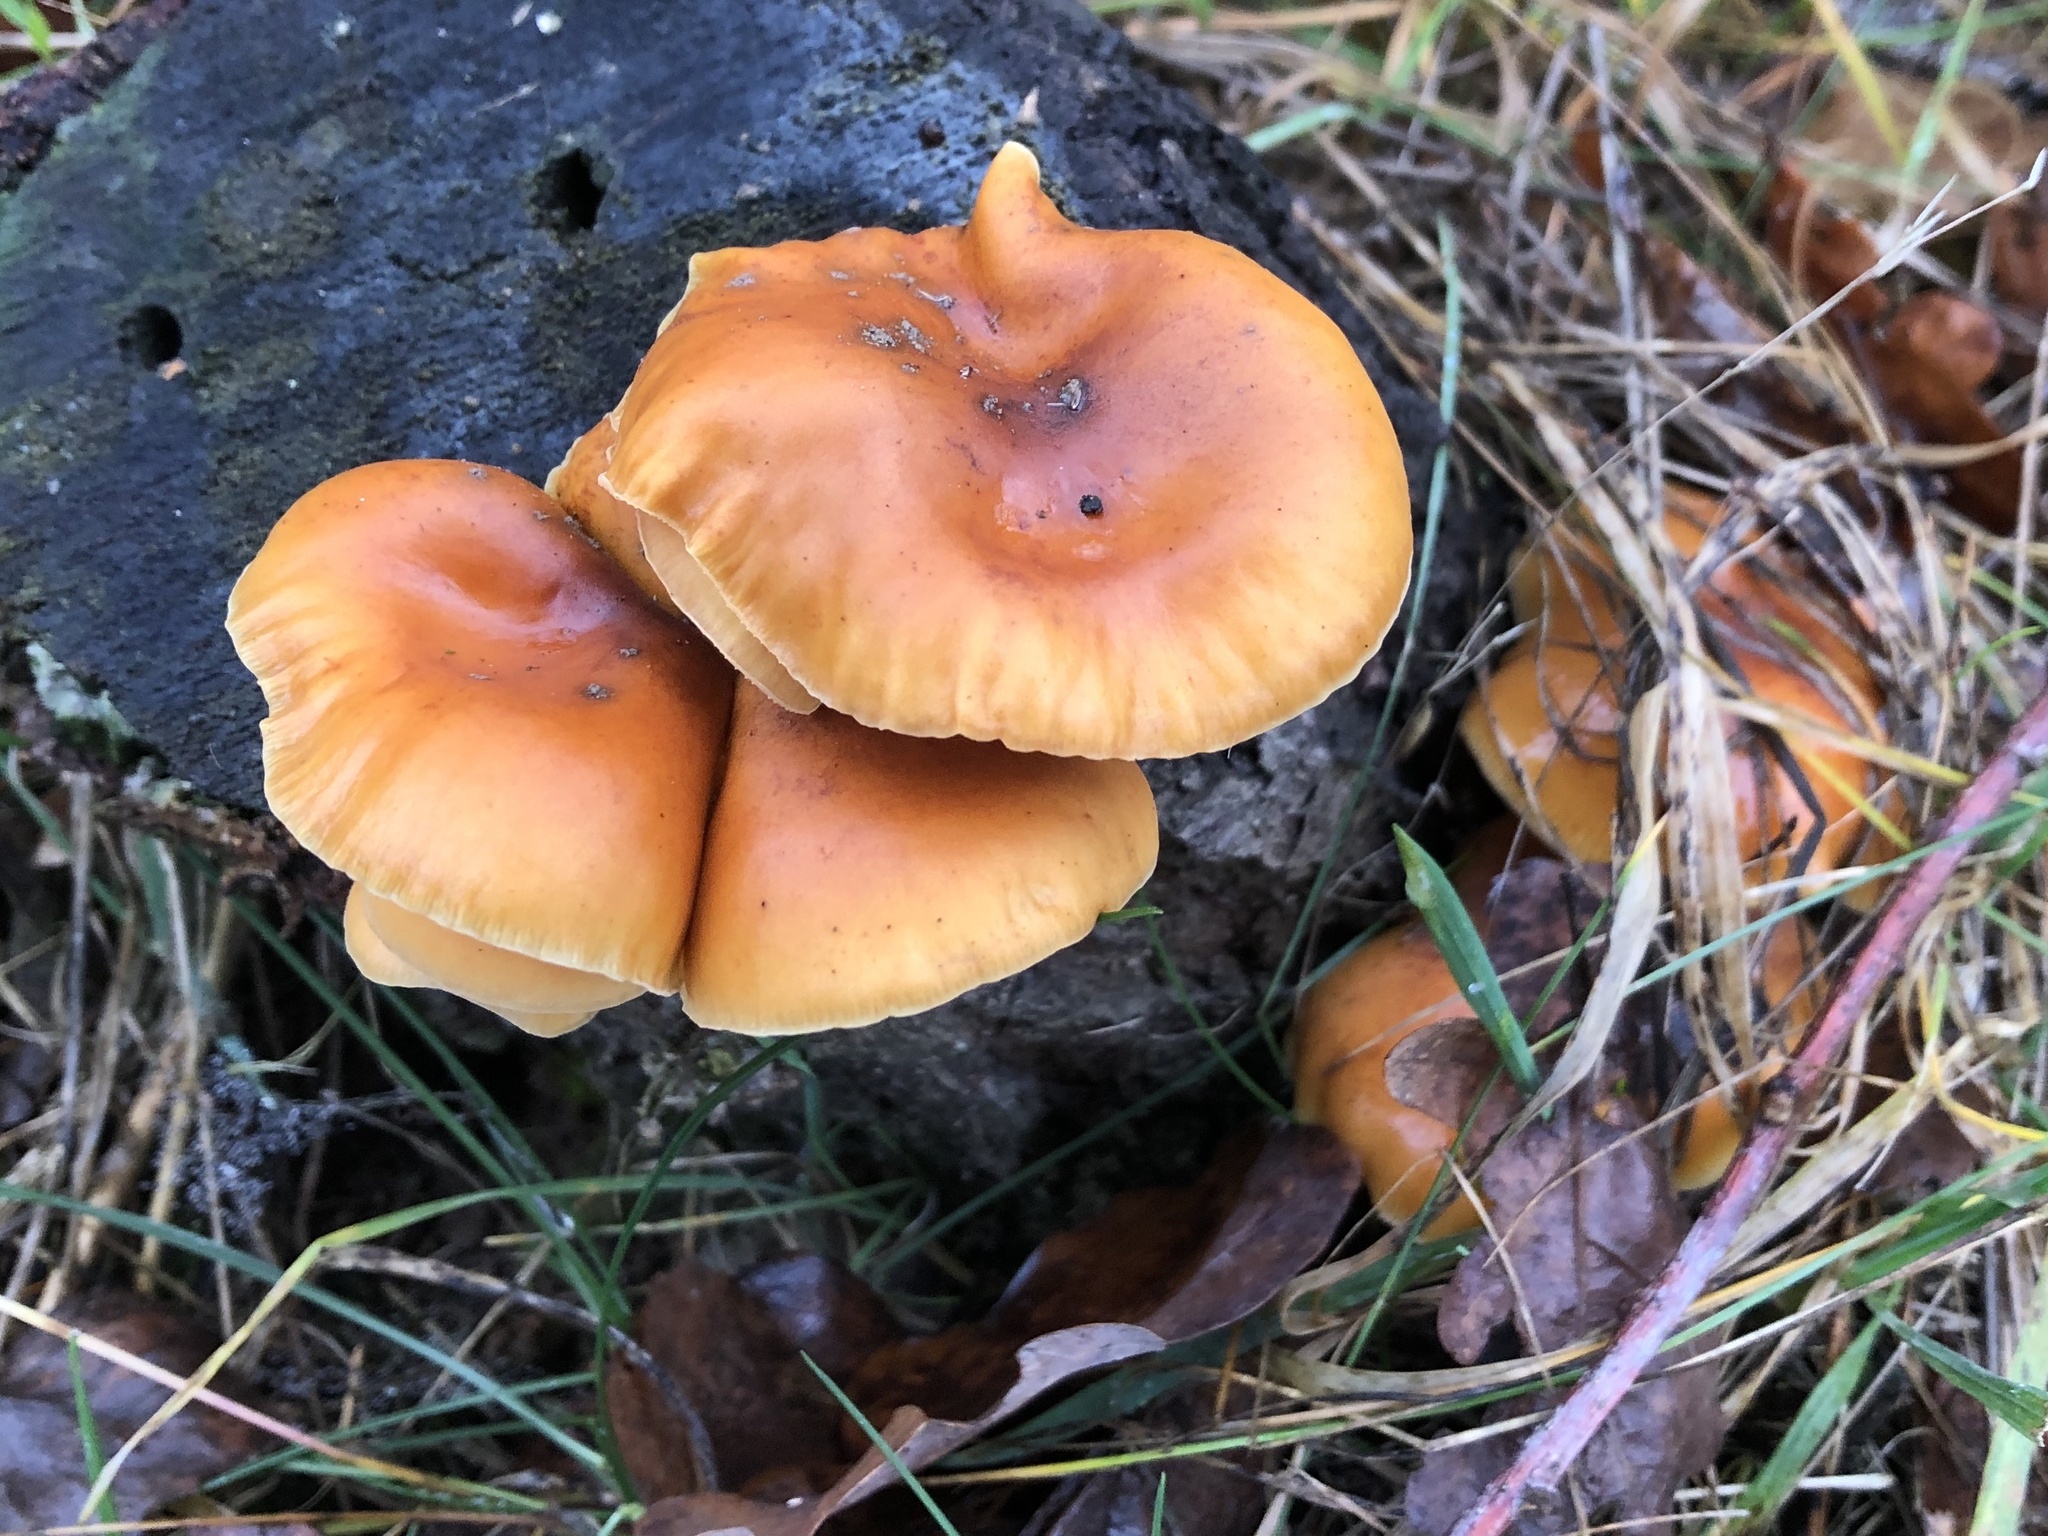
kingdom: Fungi
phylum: Basidiomycota
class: Agaricomycetes
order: Agaricales
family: Physalacriaceae
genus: Flammulina
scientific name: Flammulina
